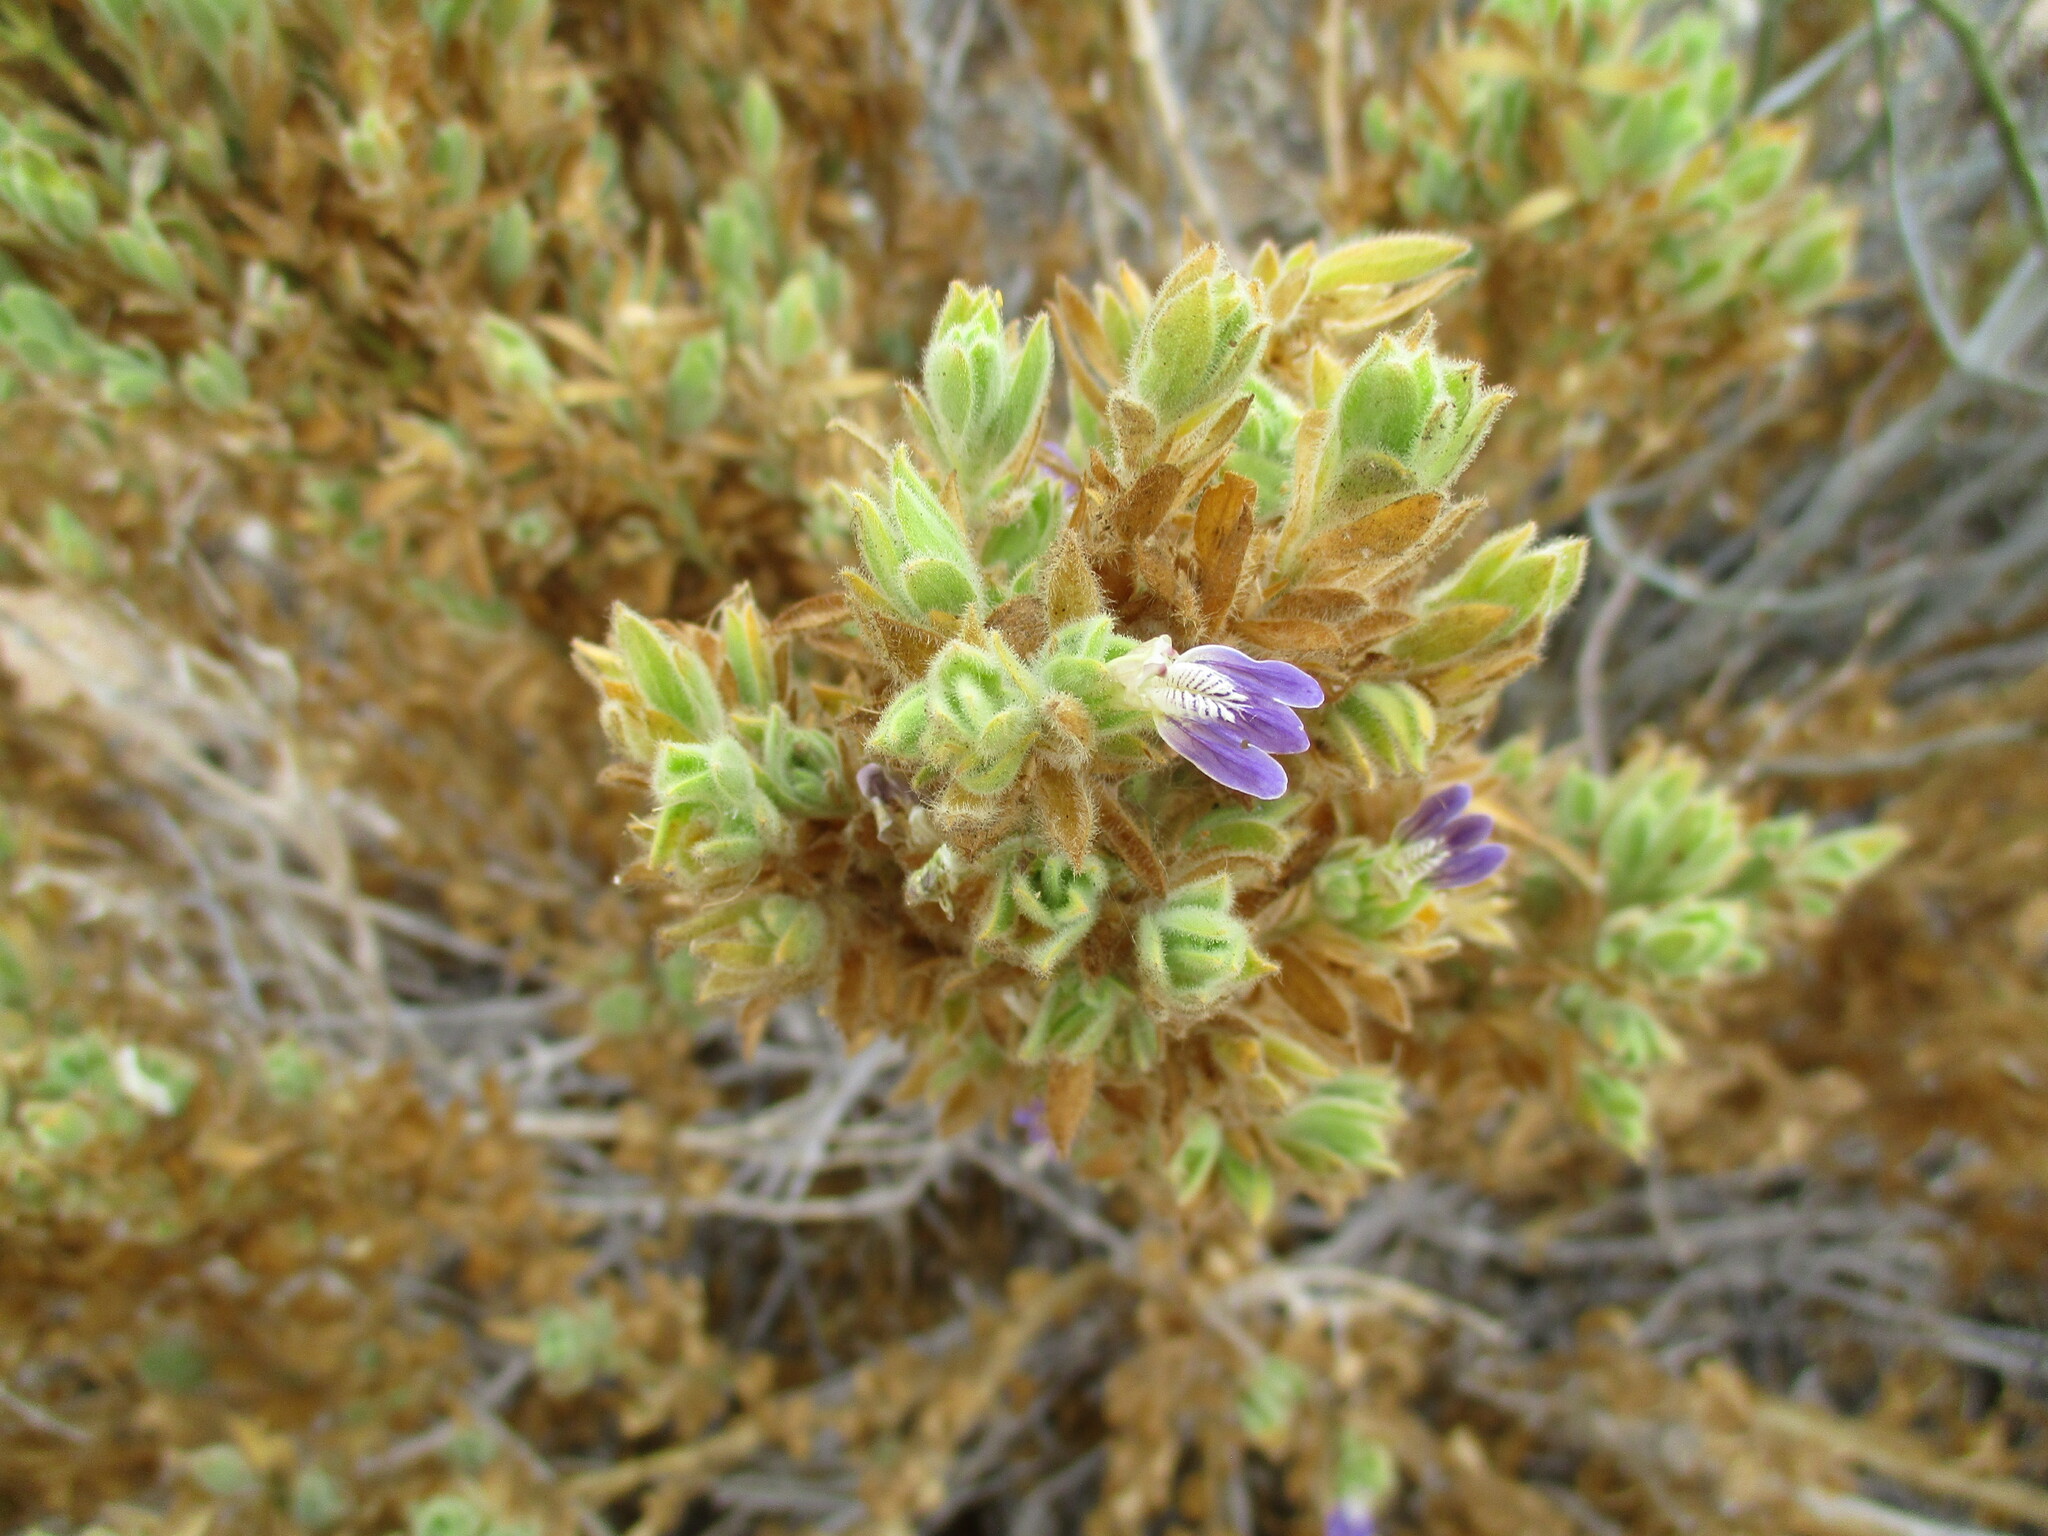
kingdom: Plantae
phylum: Tracheophyta
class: Magnoliopsida
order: Lamiales
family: Acanthaceae
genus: Pogonospermum
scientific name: Pogonospermum
